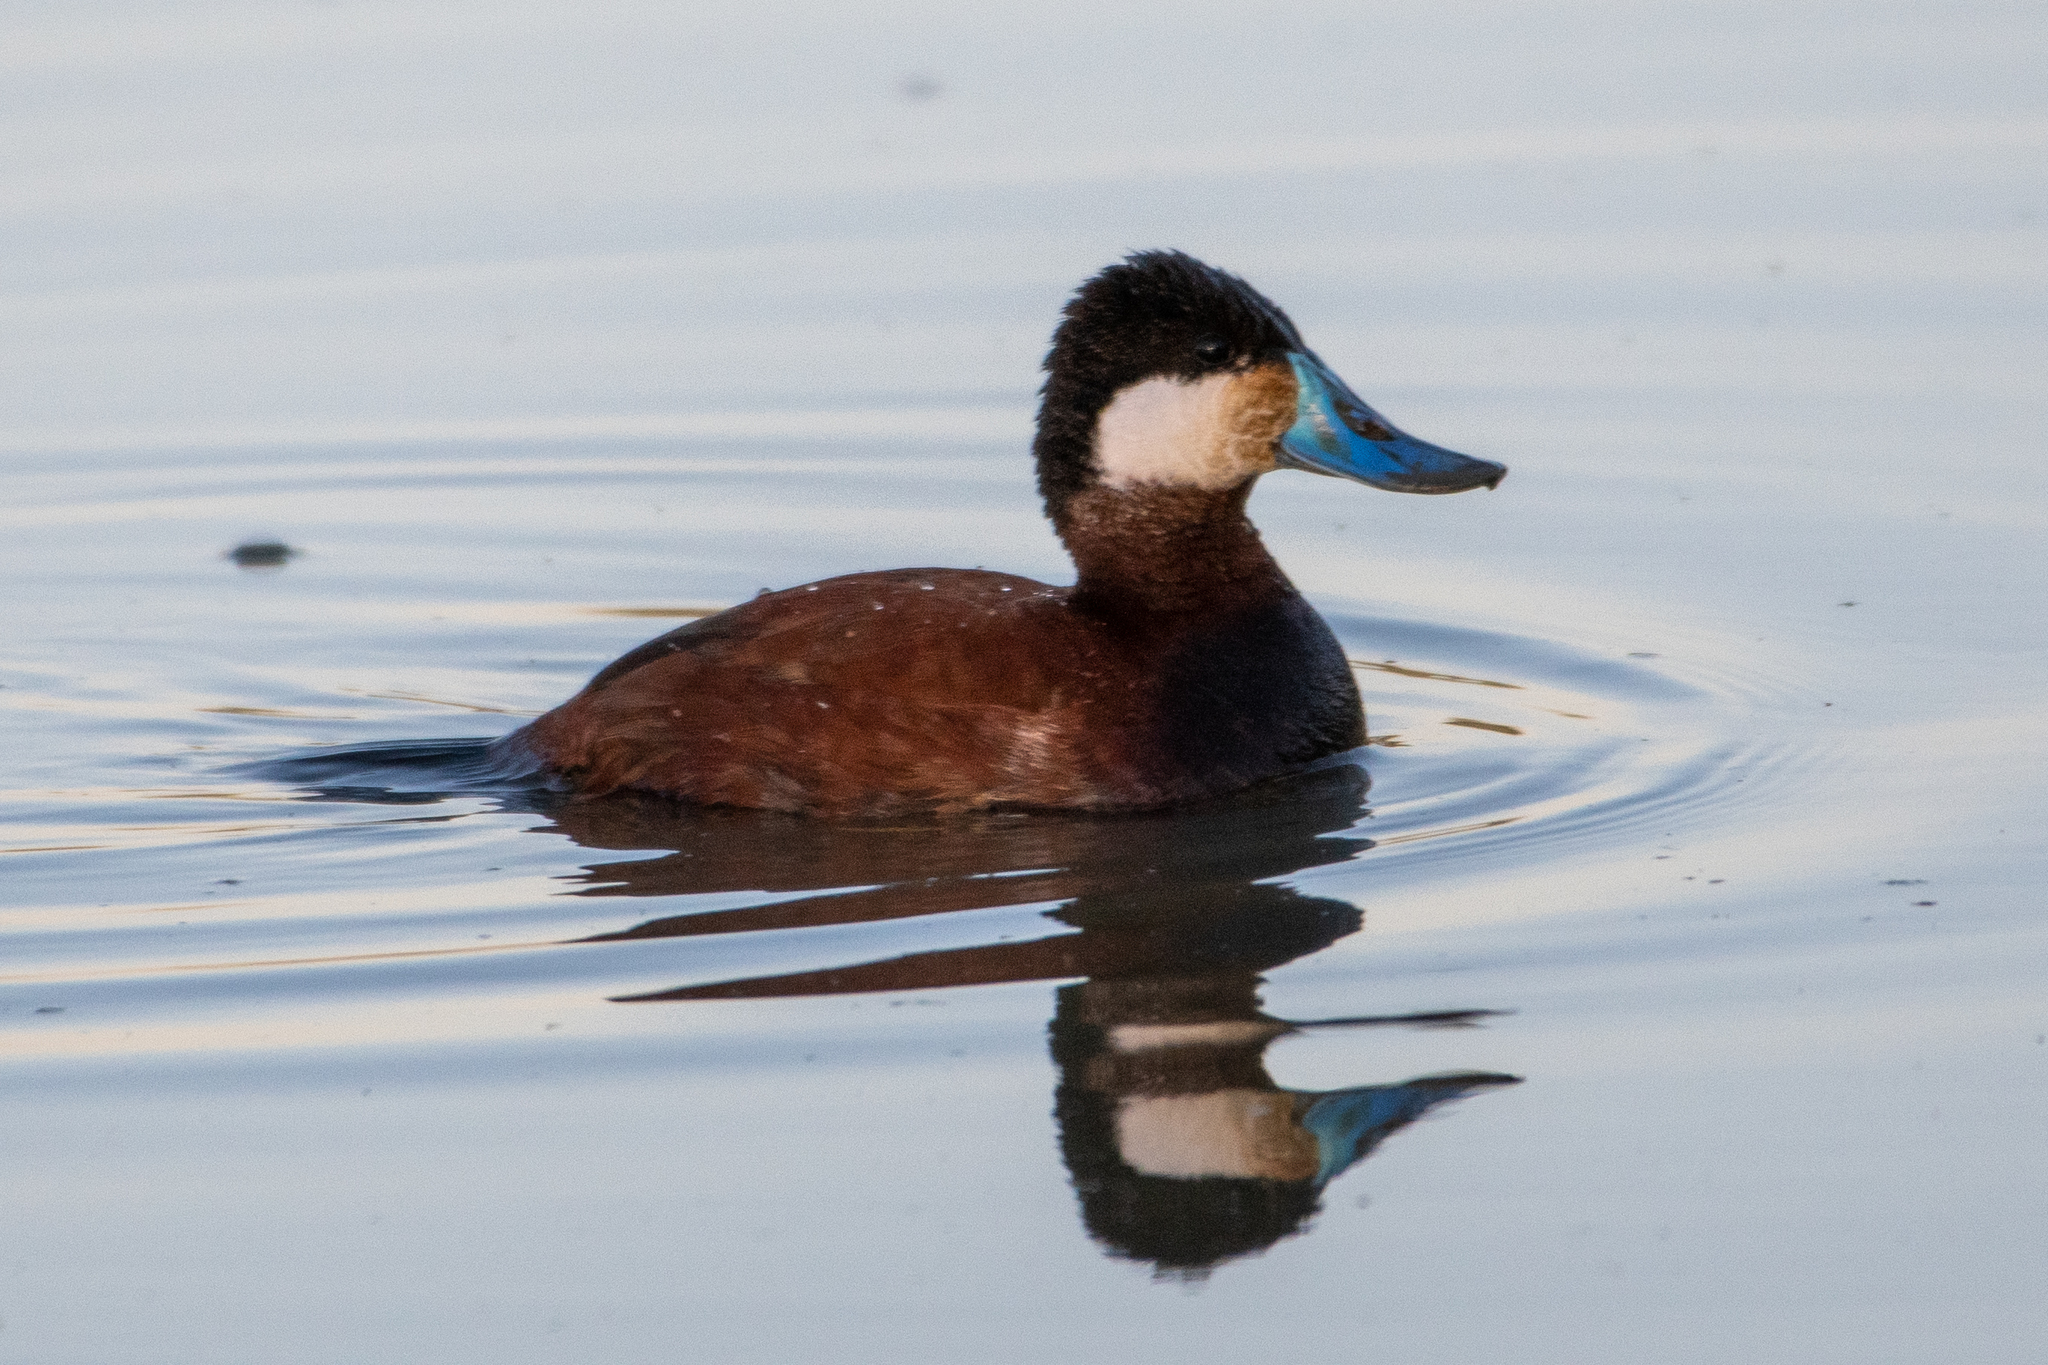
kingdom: Animalia
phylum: Chordata
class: Aves
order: Anseriformes
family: Anatidae
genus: Oxyura
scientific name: Oxyura jamaicensis
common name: Ruddy duck
